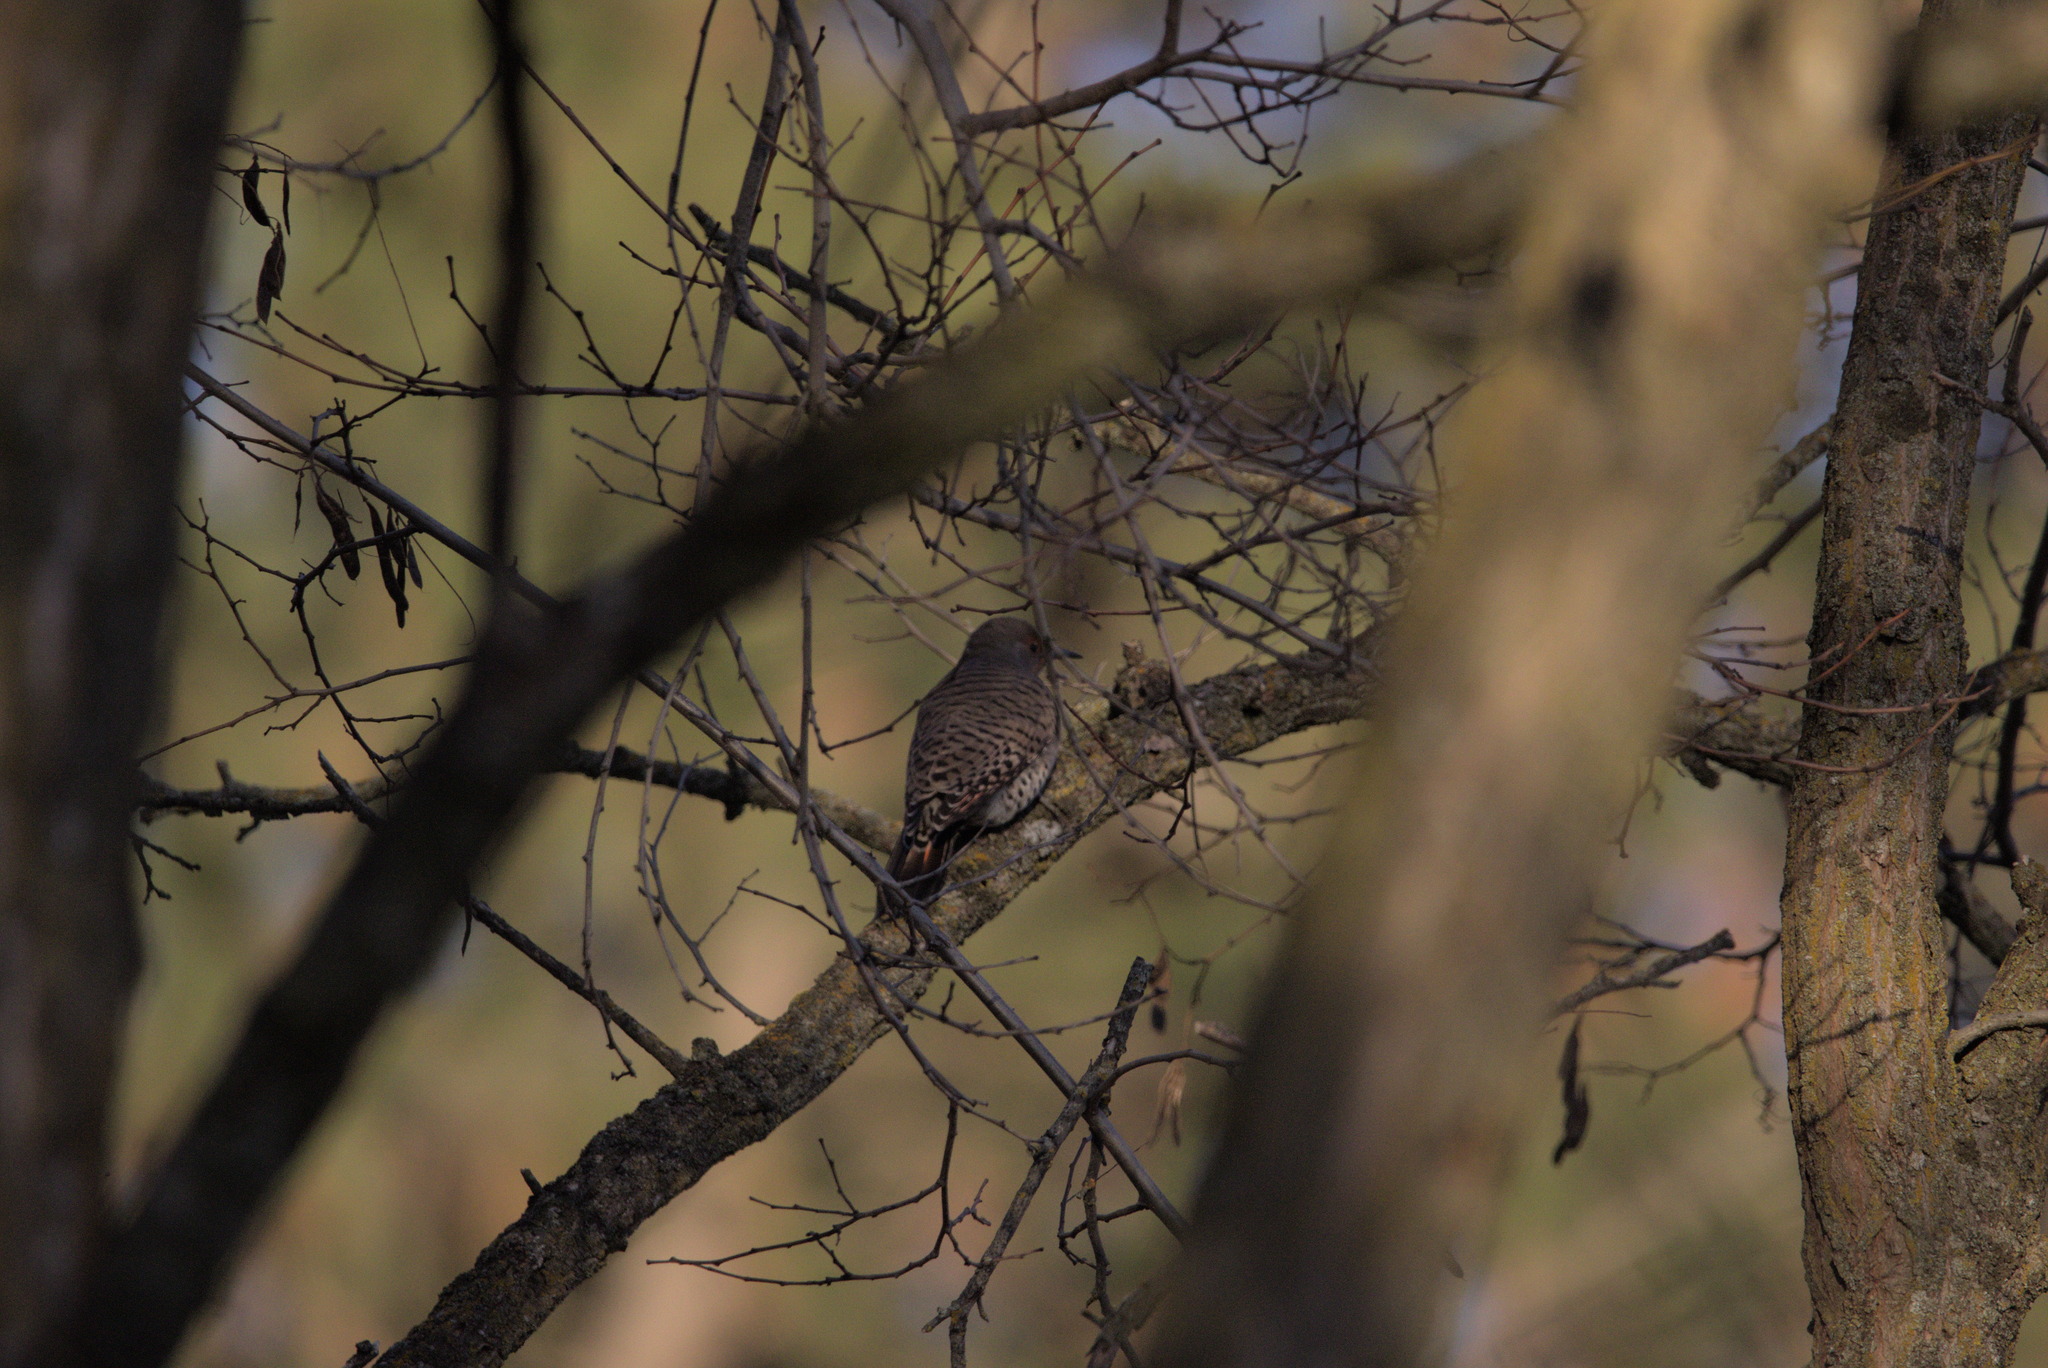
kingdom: Animalia
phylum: Chordata
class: Aves
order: Piciformes
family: Picidae
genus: Colaptes
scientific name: Colaptes auratus
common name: Northern flicker
